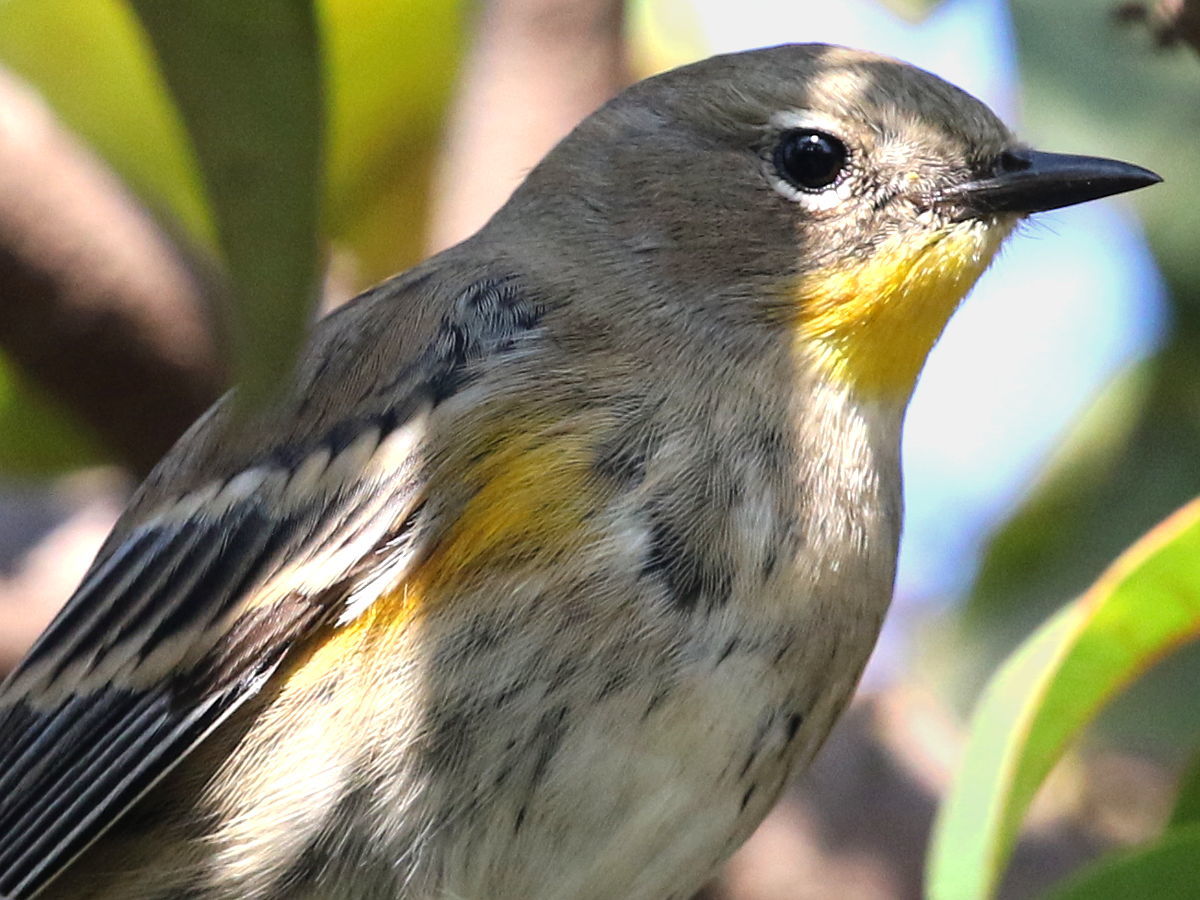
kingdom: Animalia
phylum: Chordata
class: Aves
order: Passeriformes
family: Parulidae
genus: Setophaga
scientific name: Setophaga coronata
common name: Myrtle warbler
